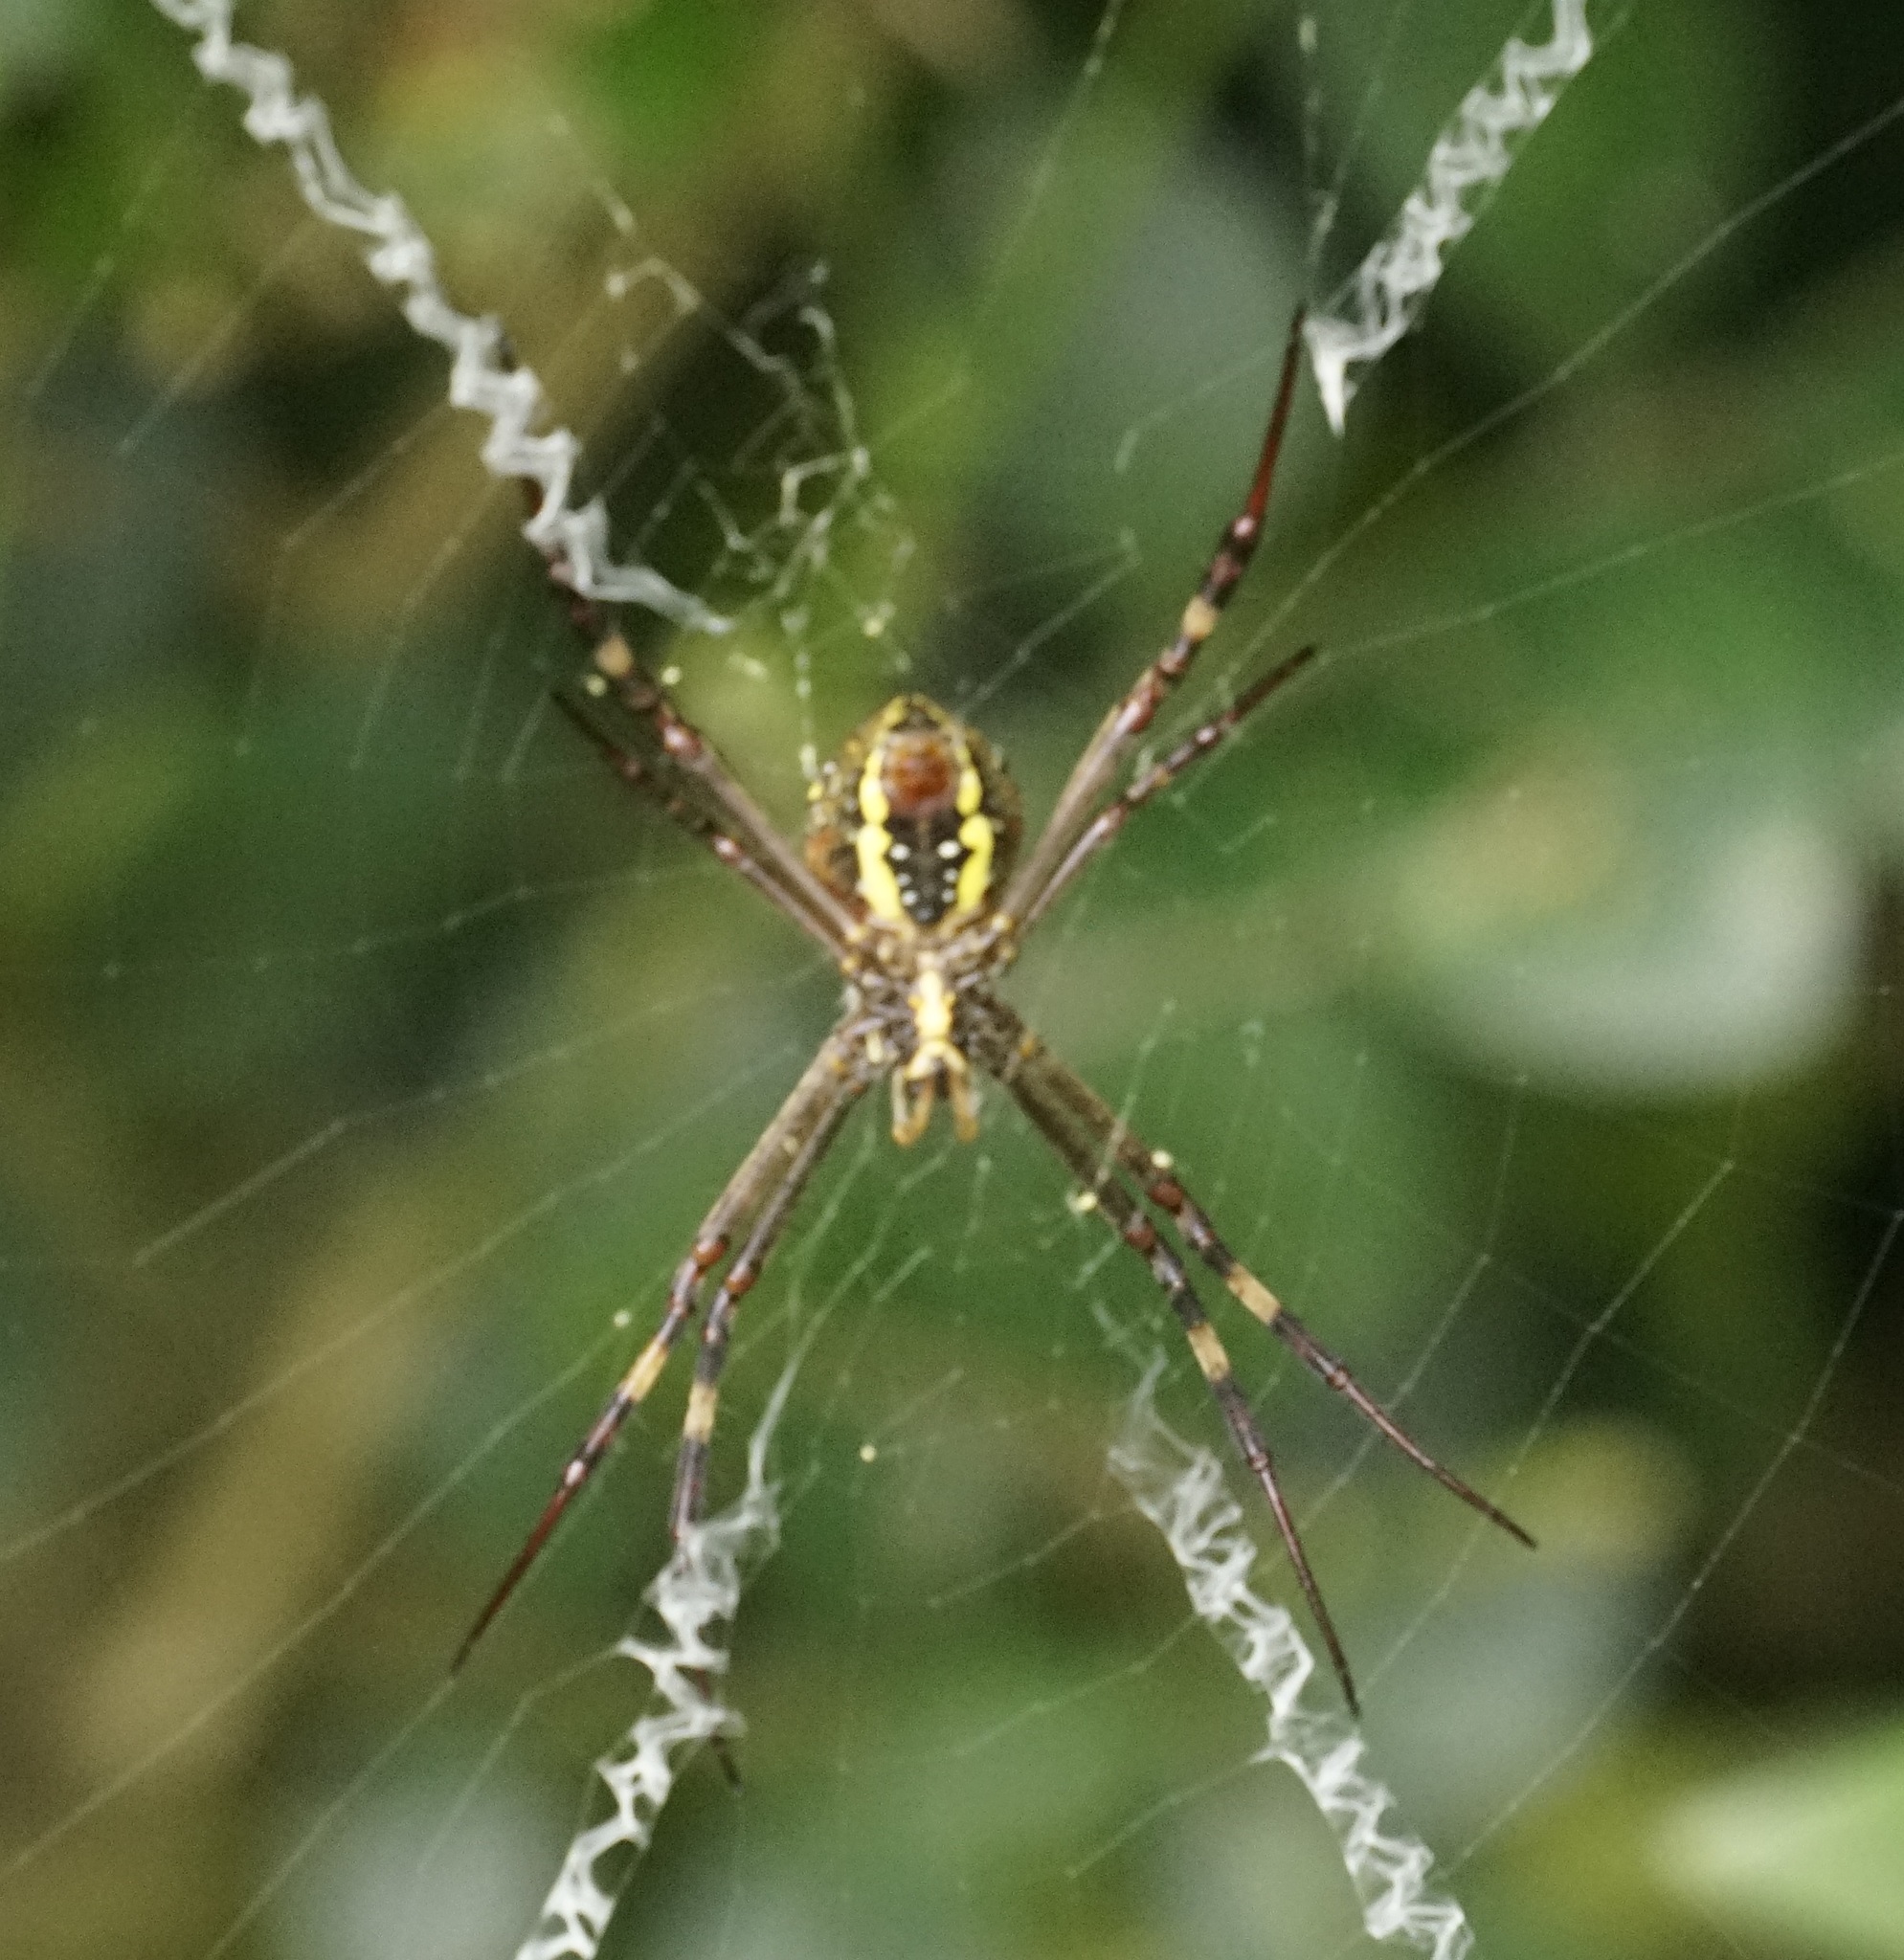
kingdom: Animalia
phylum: Arthropoda
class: Arachnida
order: Araneae
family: Araneidae
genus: Argiope
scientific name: Argiope keyserlingi
